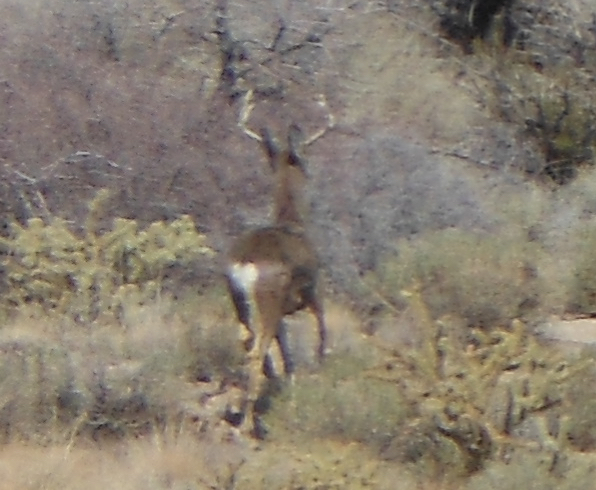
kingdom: Animalia
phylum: Chordata
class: Mammalia
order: Artiodactyla
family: Cervidae
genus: Odocoileus
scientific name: Odocoileus hemionus
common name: Mule deer
